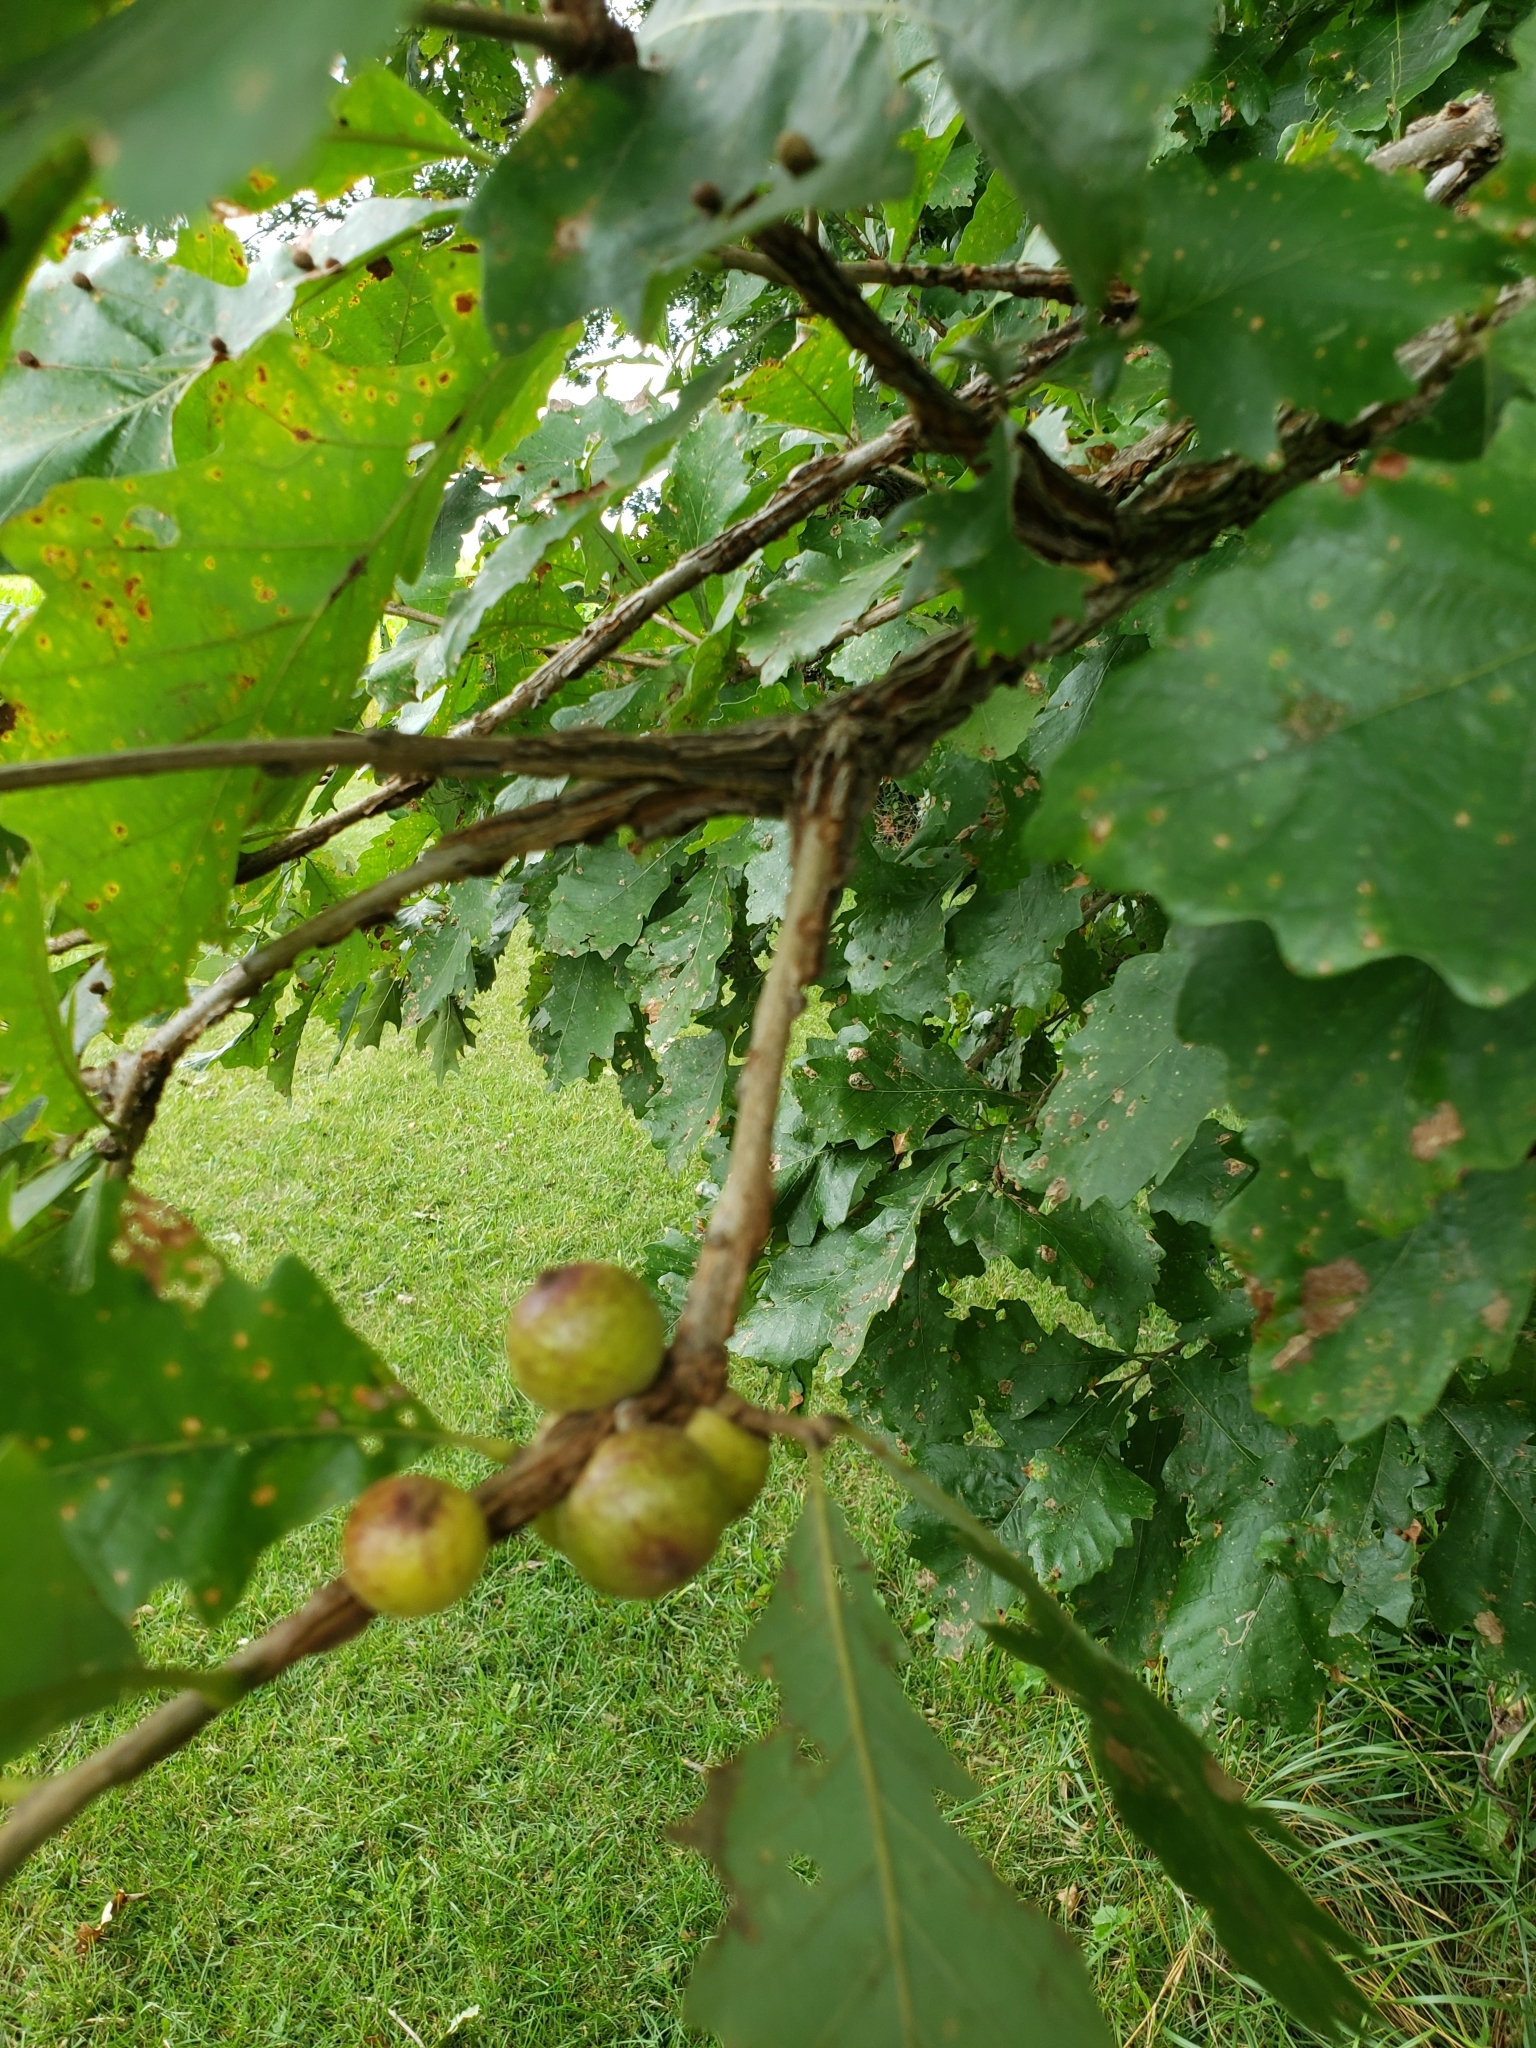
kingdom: Animalia
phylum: Arthropoda
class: Insecta
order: Hymenoptera
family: Cynipidae
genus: Disholcaspis
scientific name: Disholcaspis
